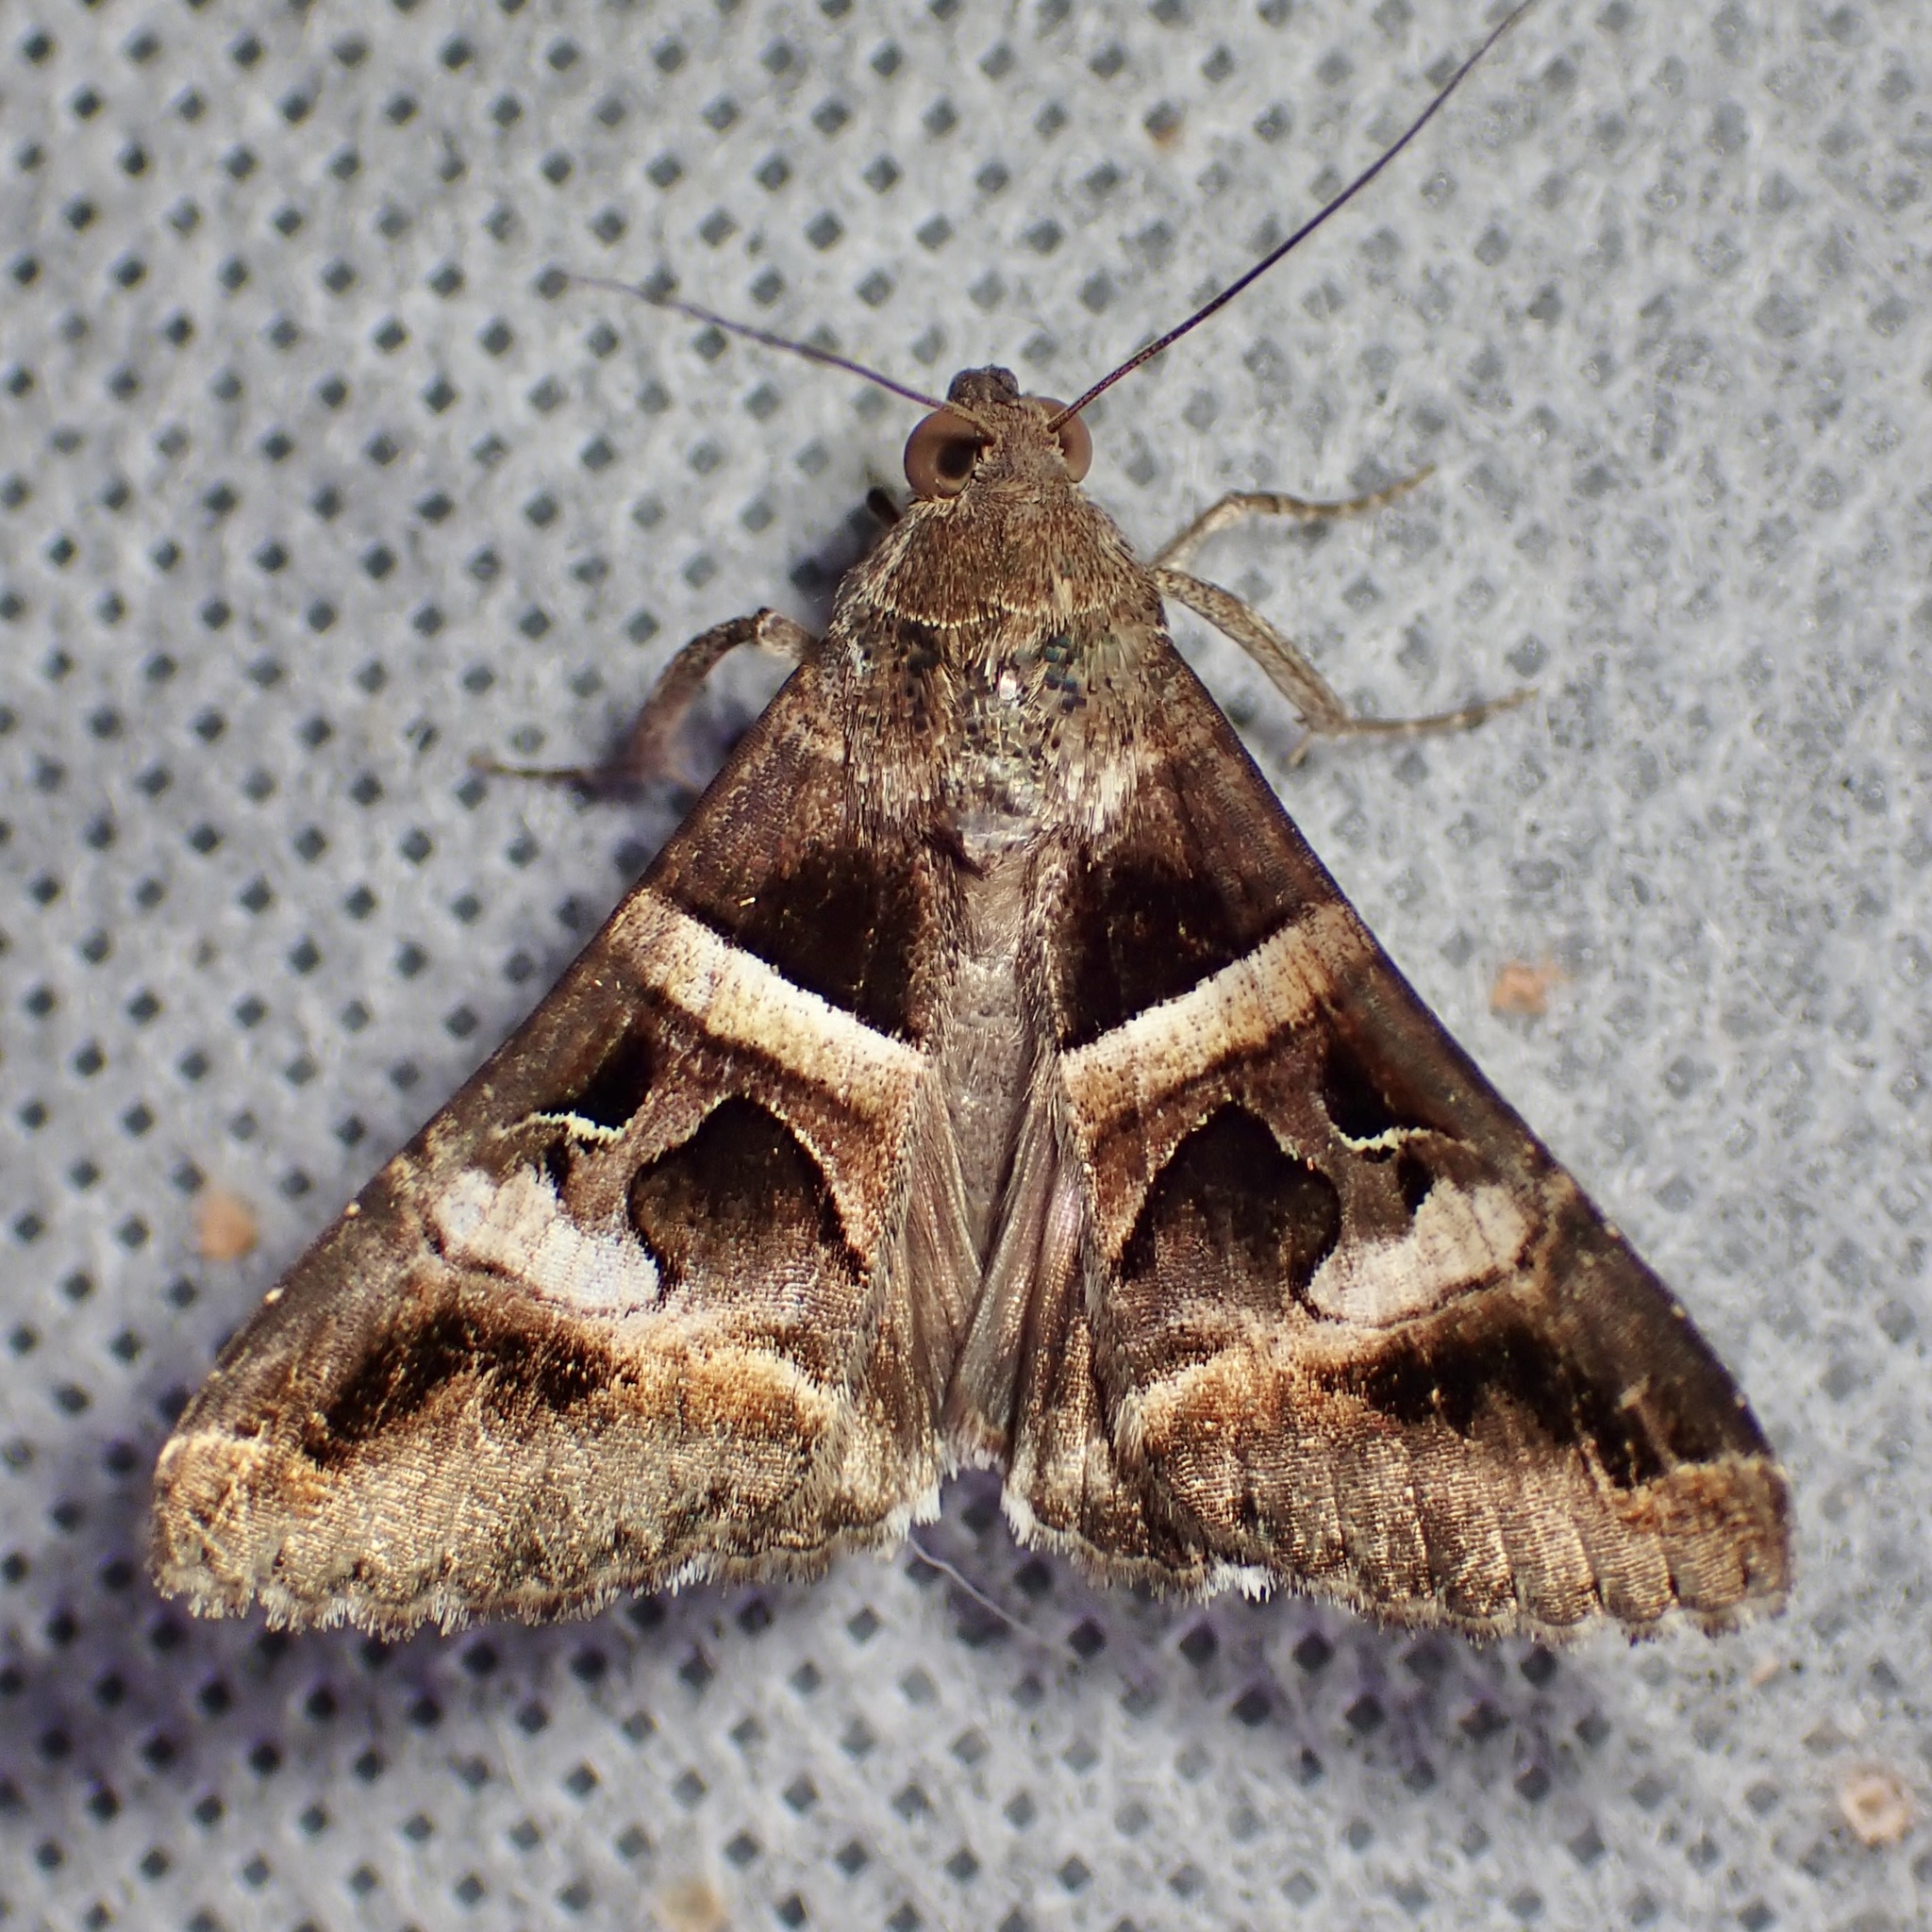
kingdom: Animalia
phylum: Arthropoda
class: Insecta
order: Lepidoptera
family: Erebidae
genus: Melipotis
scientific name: Melipotis perpendicularis
